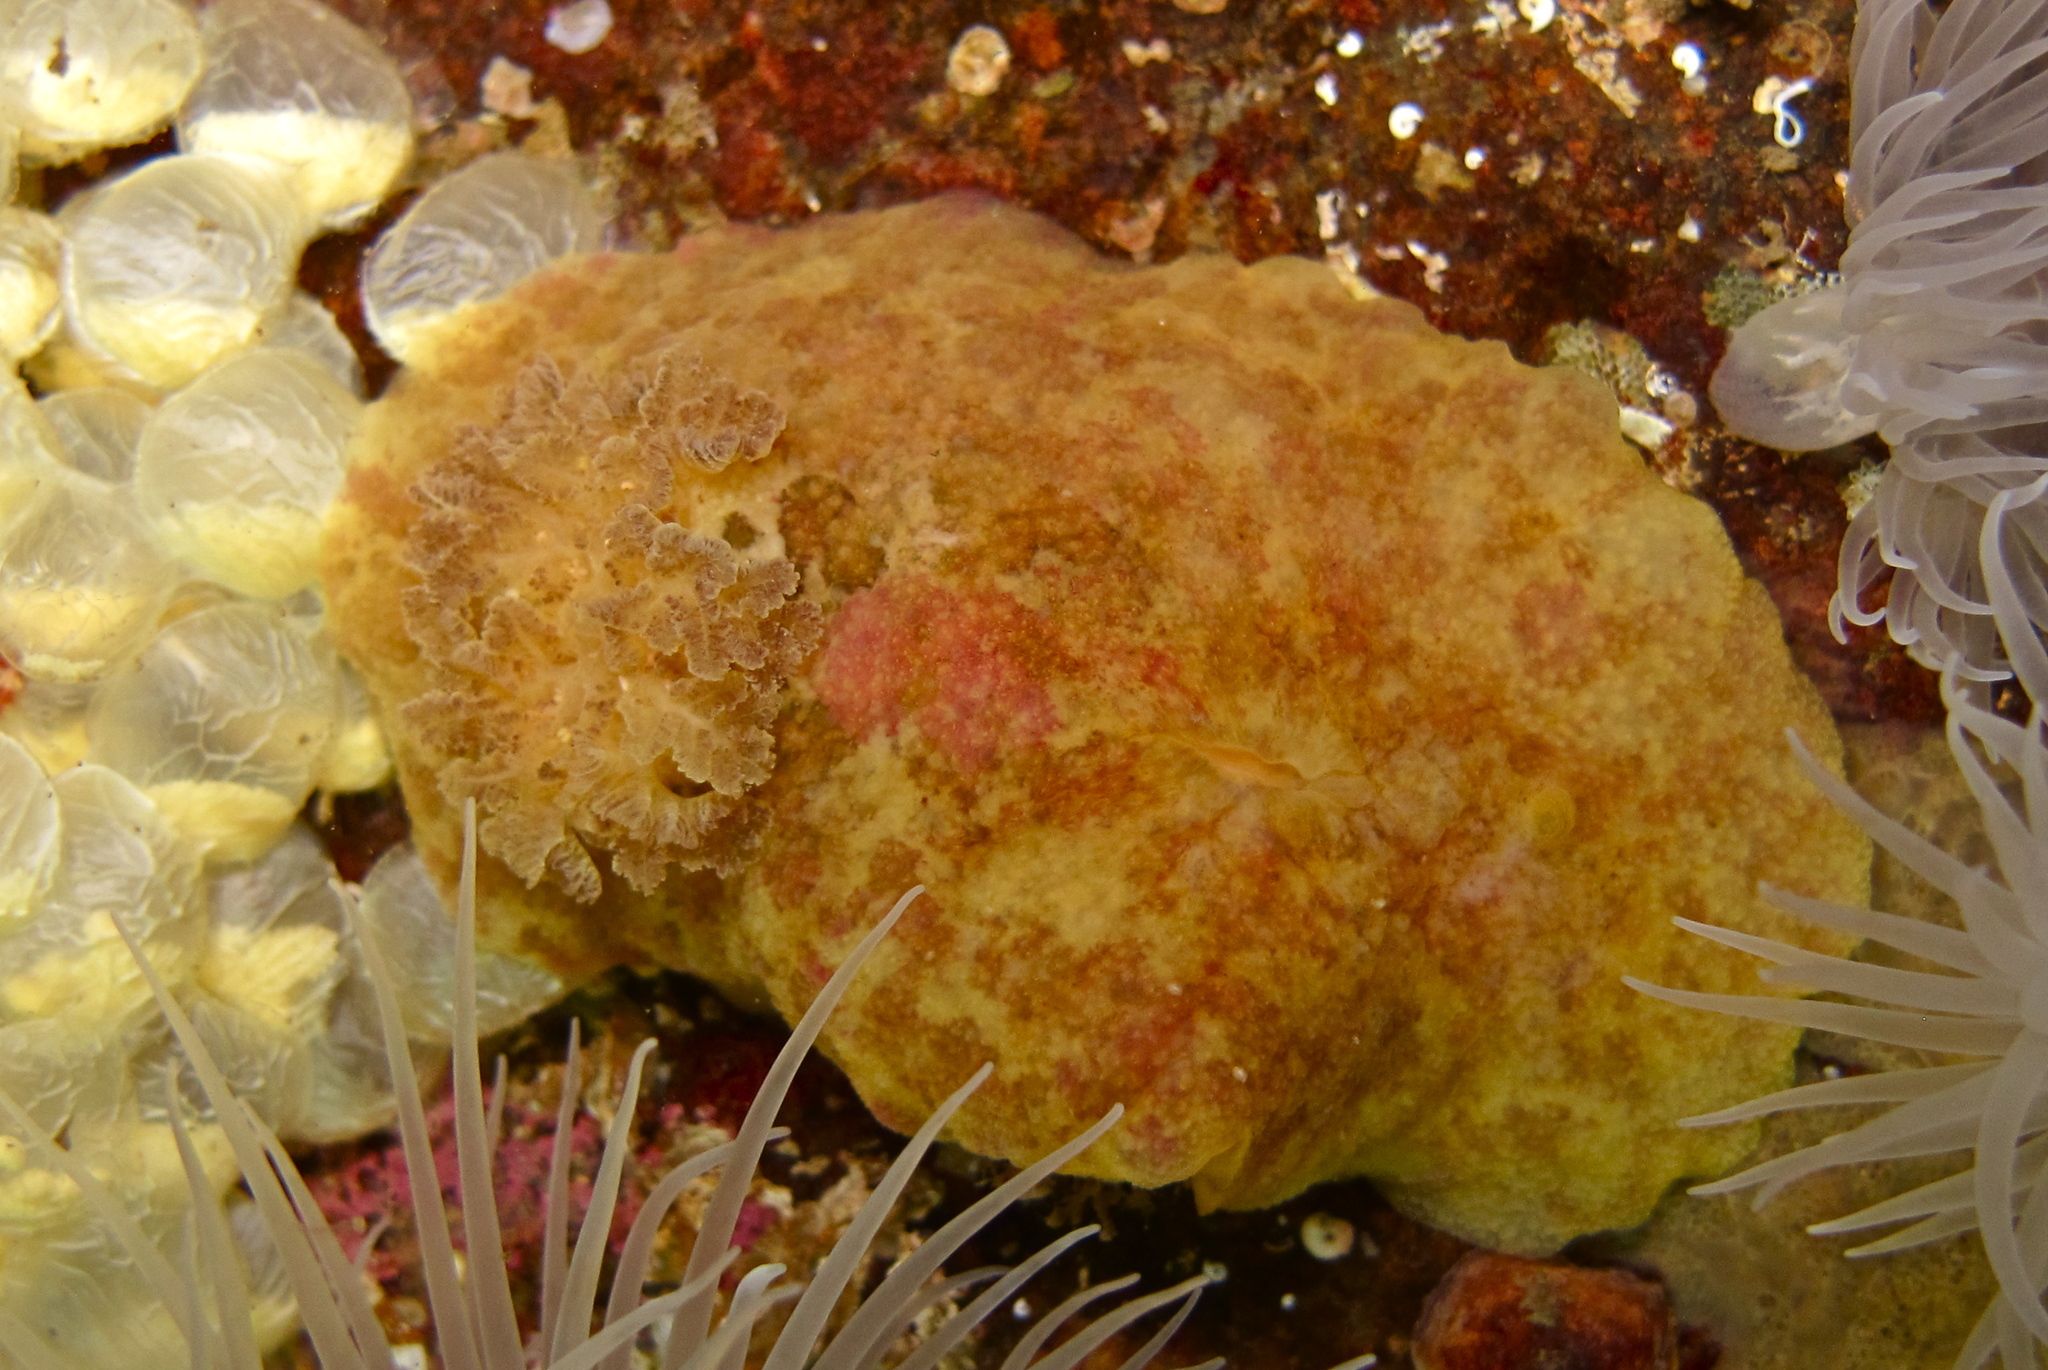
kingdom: Animalia
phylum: Mollusca
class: Gastropoda
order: Nudibranchia
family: Dorididae
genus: Doris
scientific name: Doris pseudoargus
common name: Sea lemon
